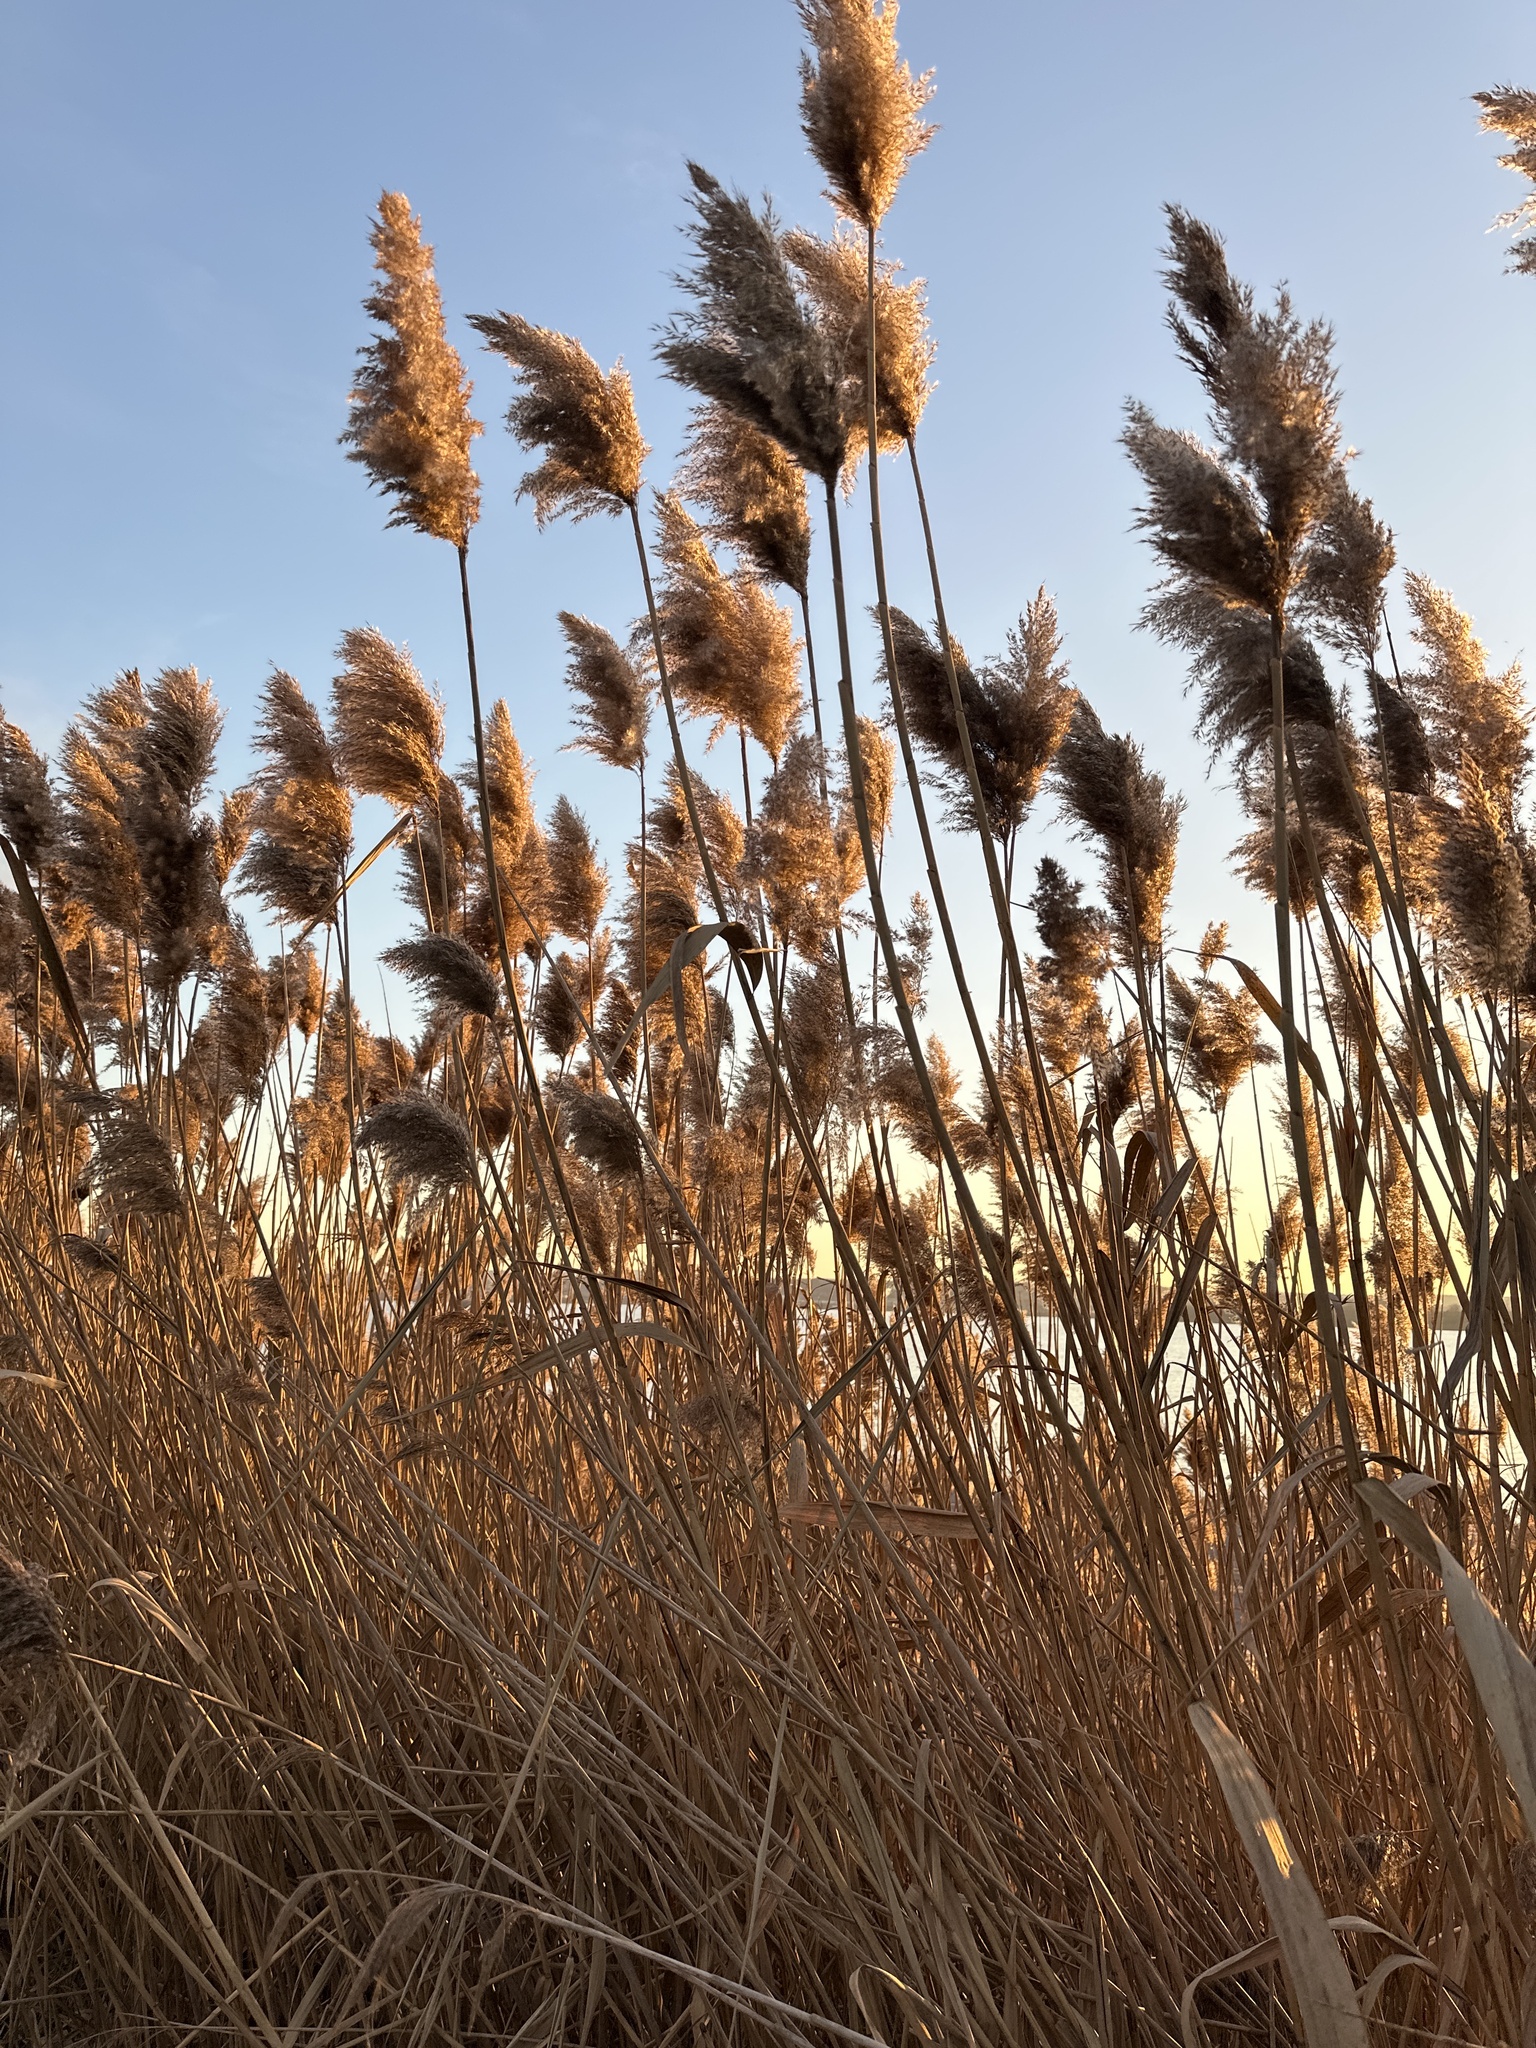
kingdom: Plantae
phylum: Tracheophyta
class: Liliopsida
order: Poales
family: Poaceae
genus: Phragmites
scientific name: Phragmites australis
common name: Common reed
